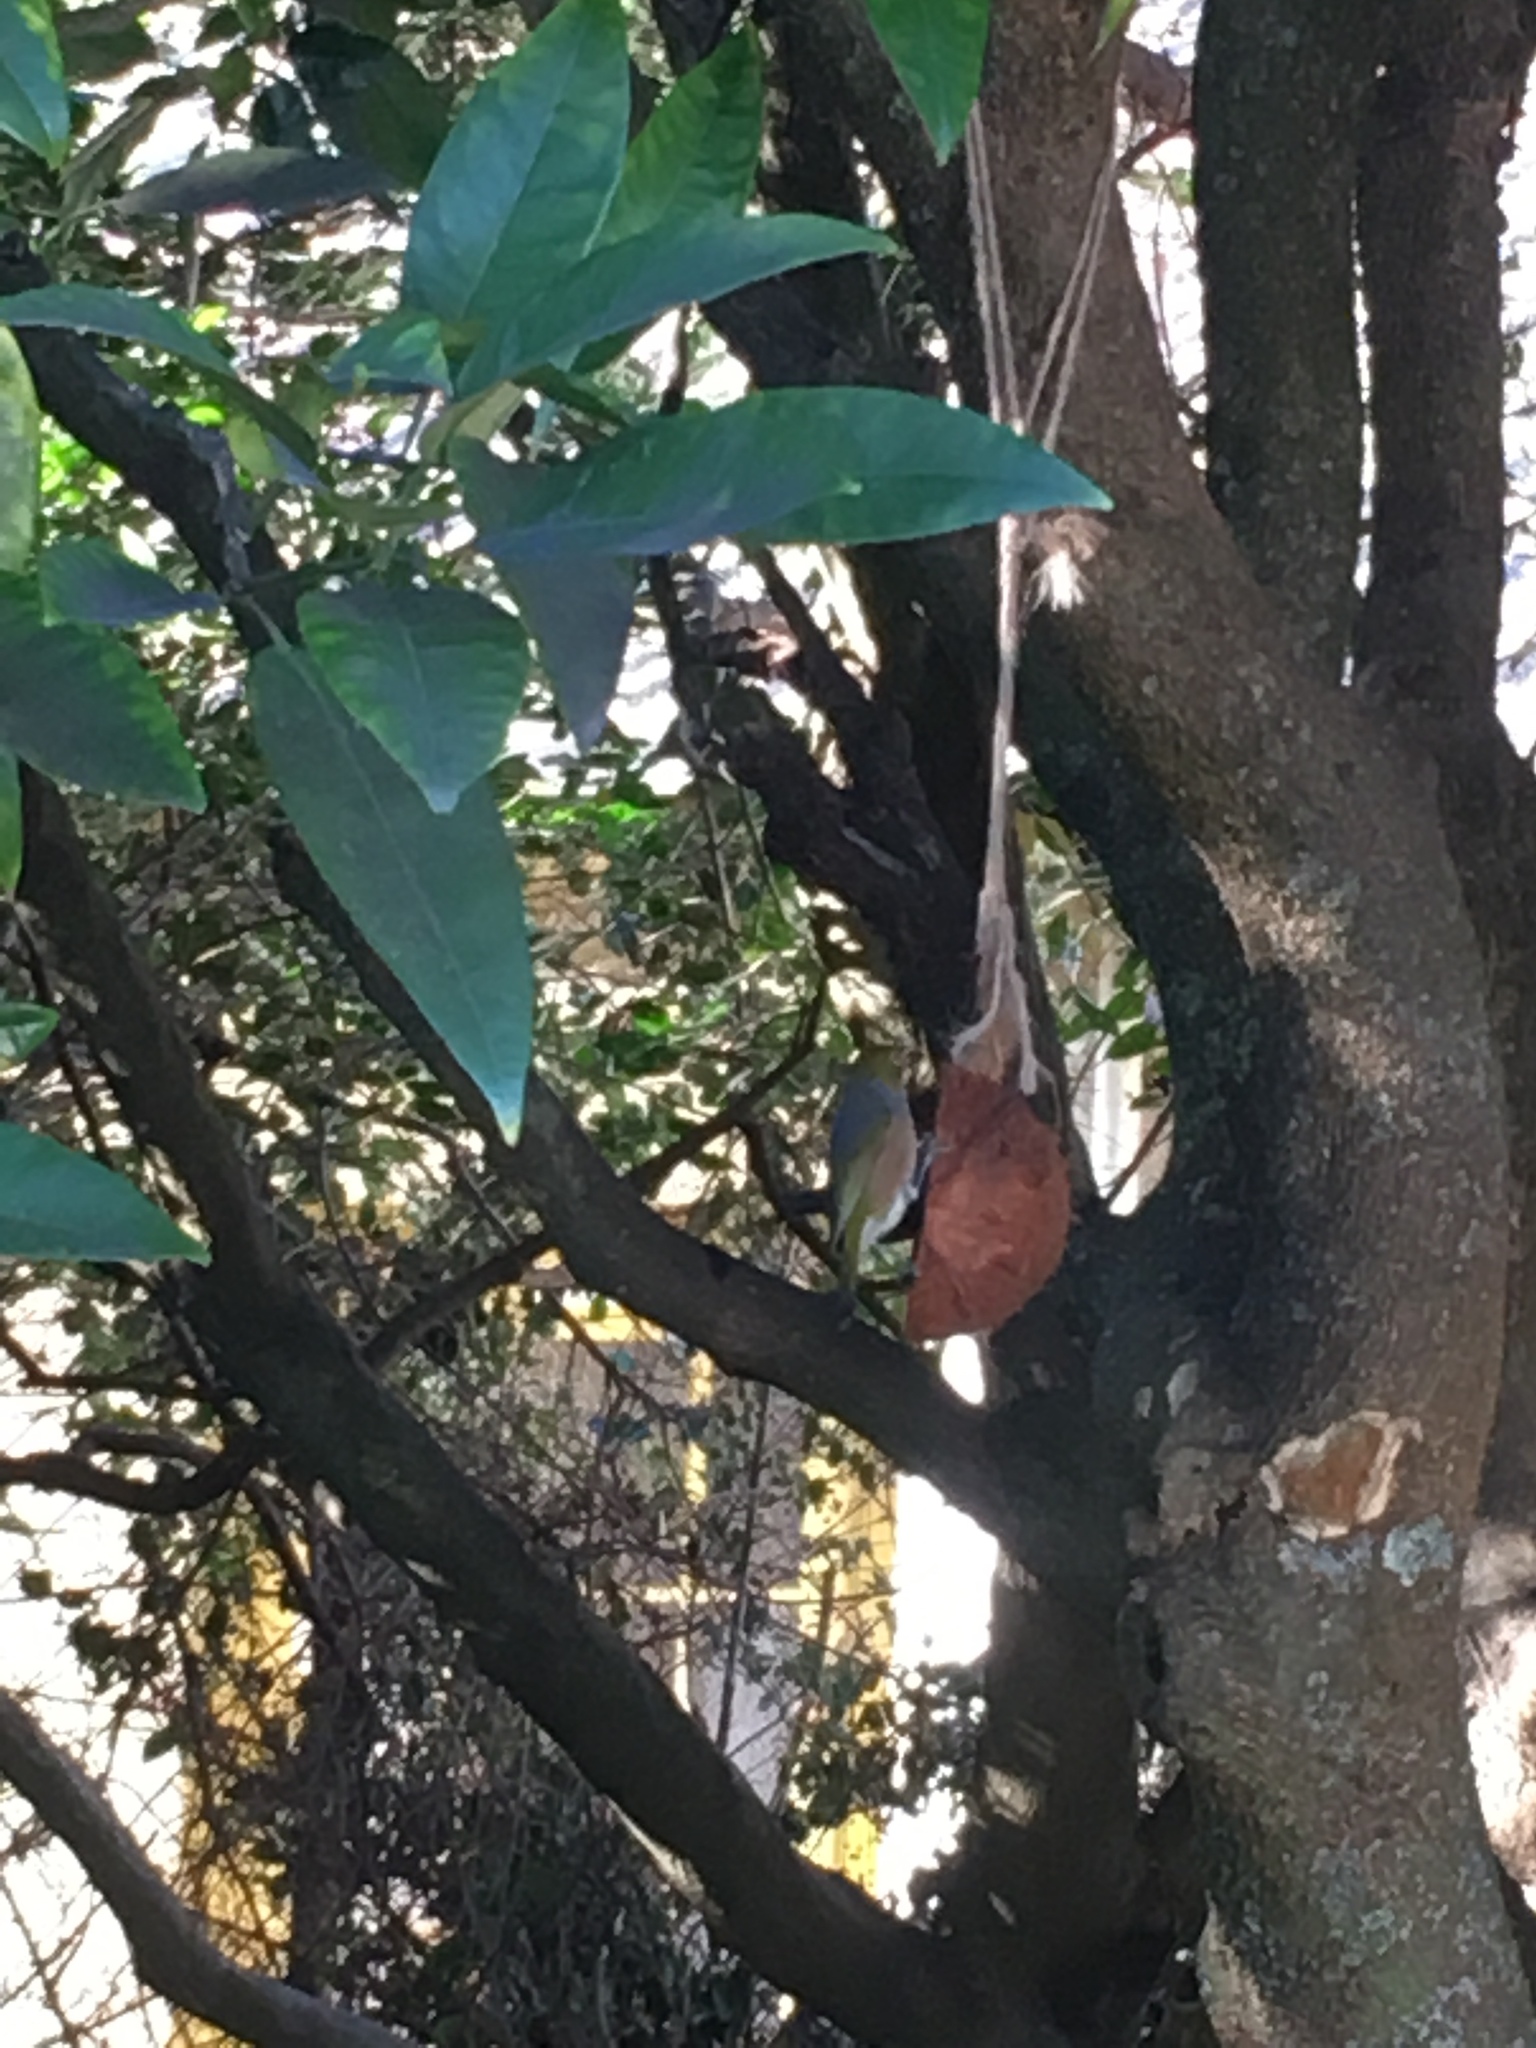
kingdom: Animalia
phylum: Chordata
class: Aves
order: Passeriformes
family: Zosteropidae
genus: Zosterops
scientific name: Zosterops lateralis
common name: Silvereye
